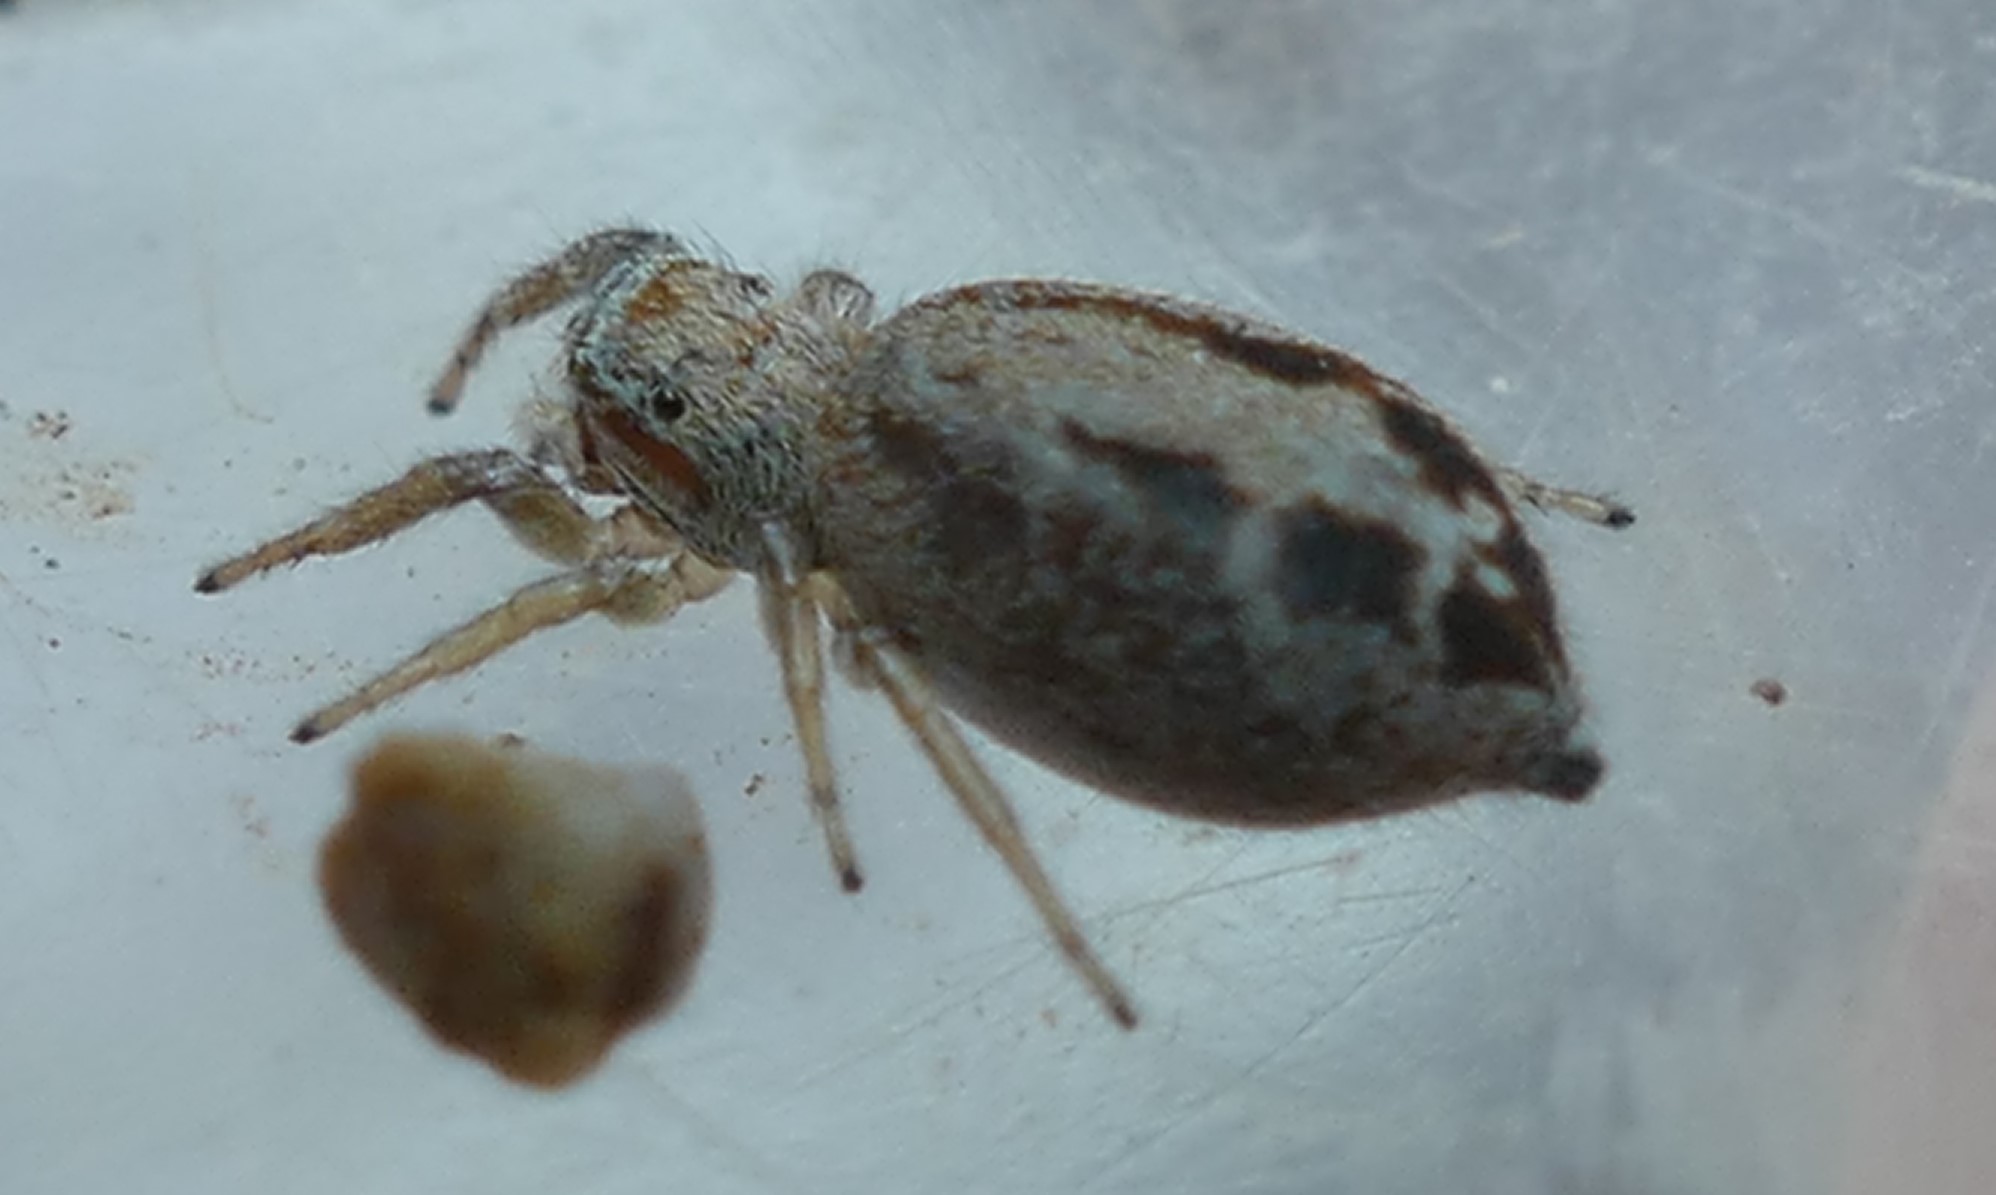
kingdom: Animalia
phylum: Arthropoda
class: Arachnida
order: Araneae
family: Salticidae
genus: Icius
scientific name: Icius
